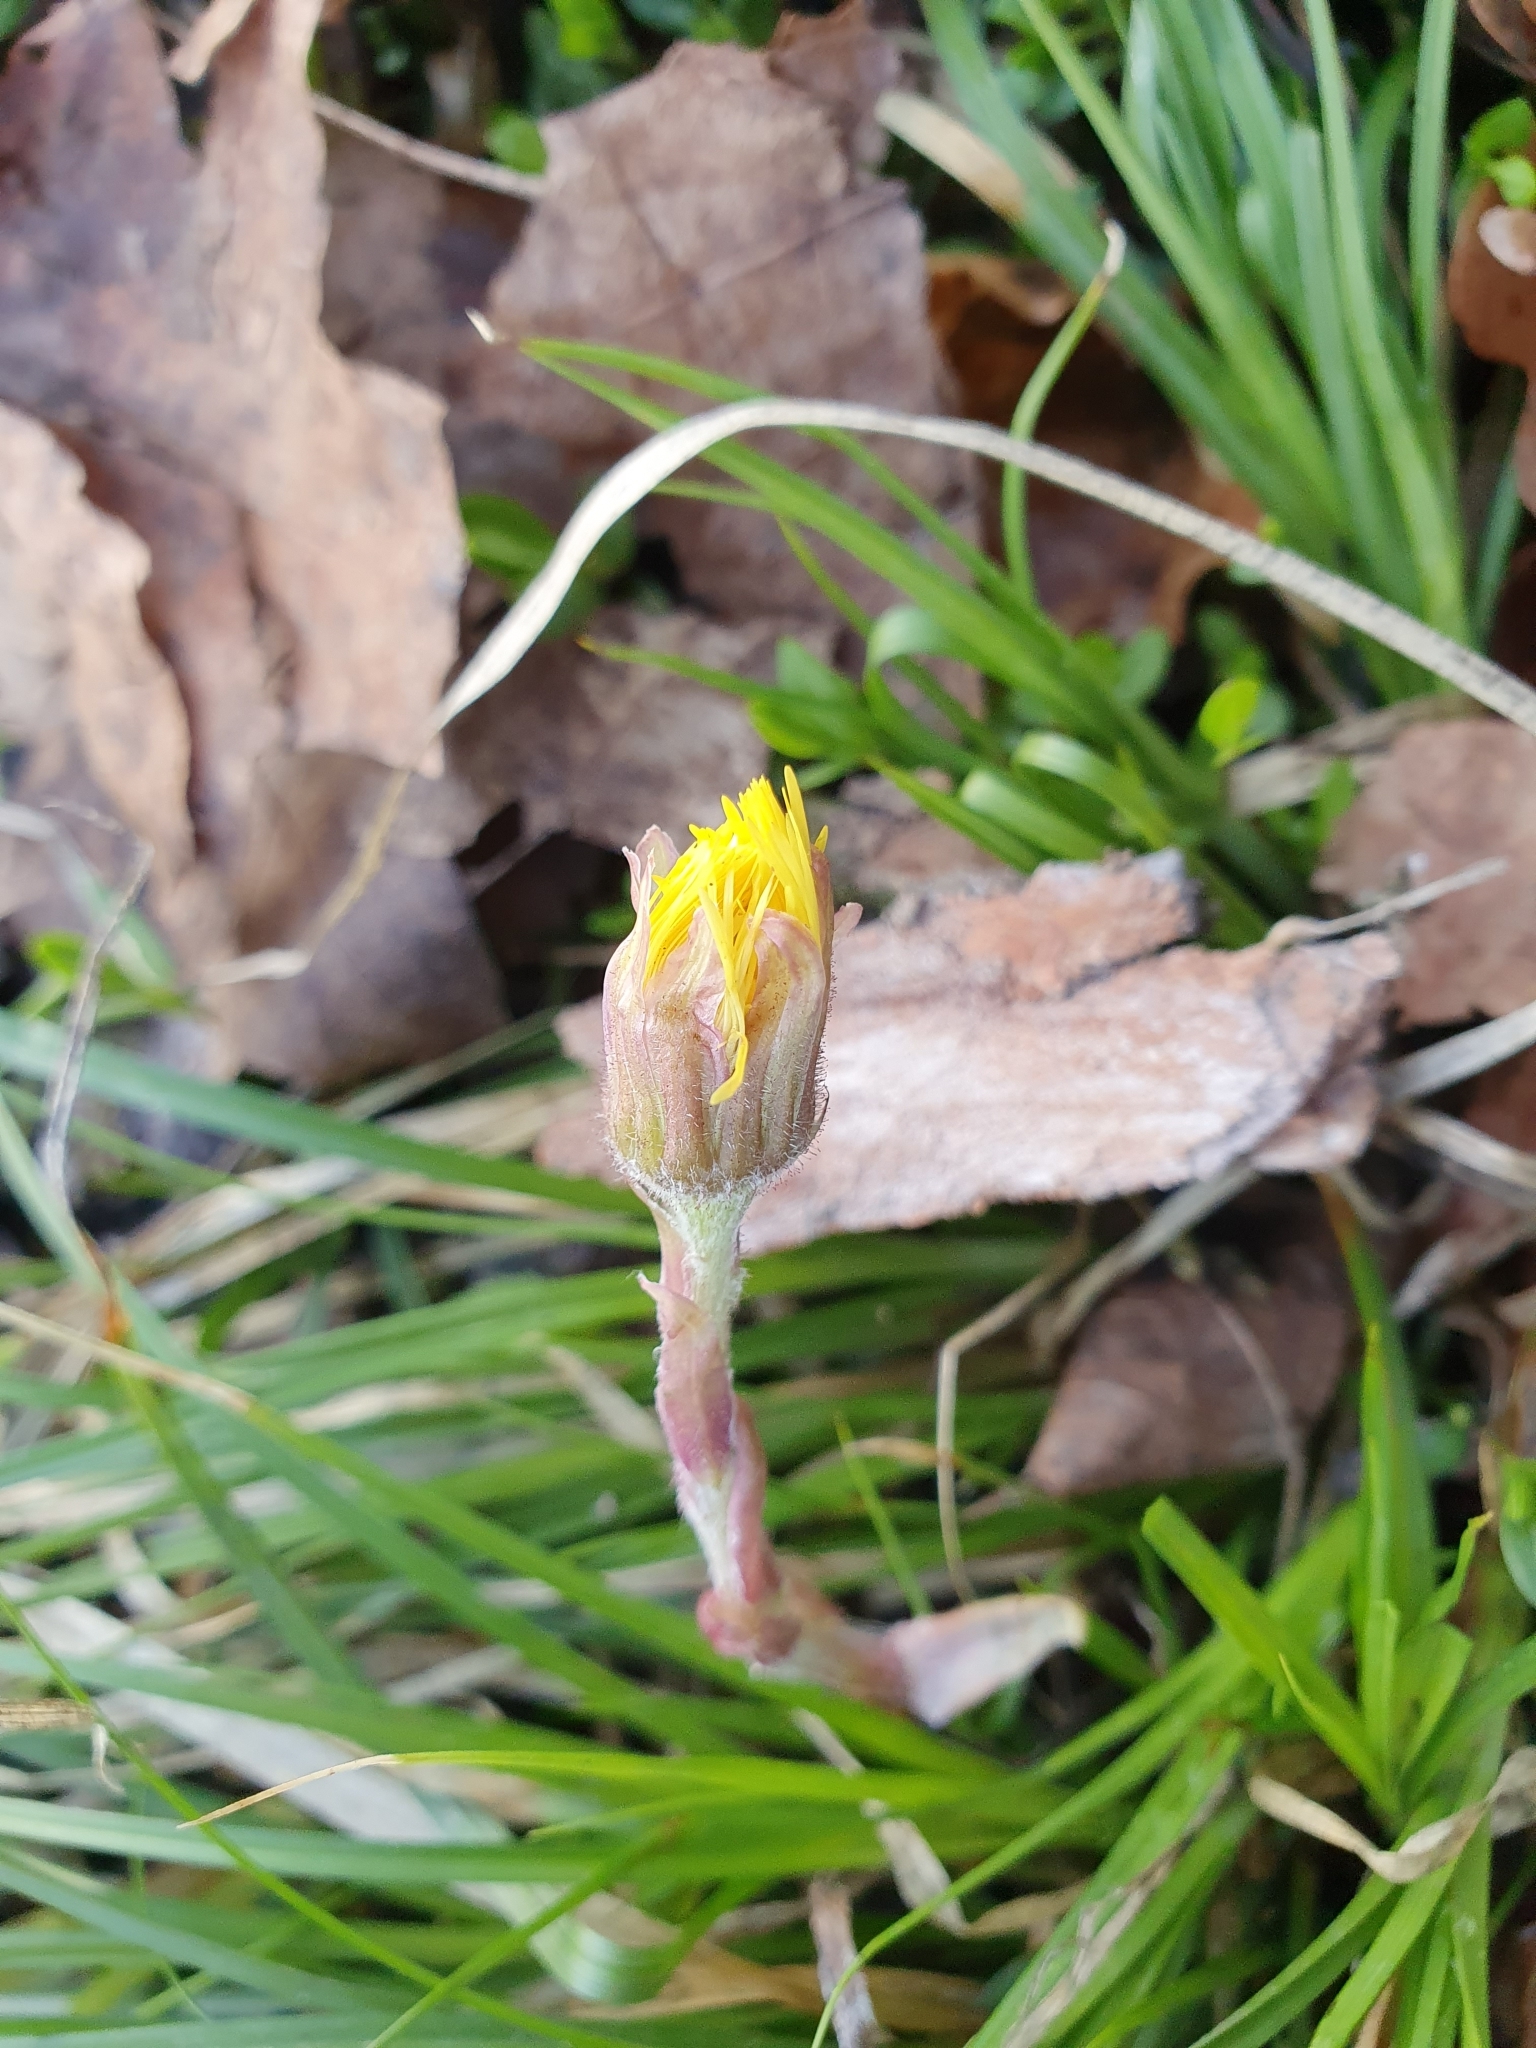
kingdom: Plantae
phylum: Tracheophyta
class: Magnoliopsida
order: Asterales
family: Asteraceae
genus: Tussilago
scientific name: Tussilago farfara
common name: Coltsfoot
